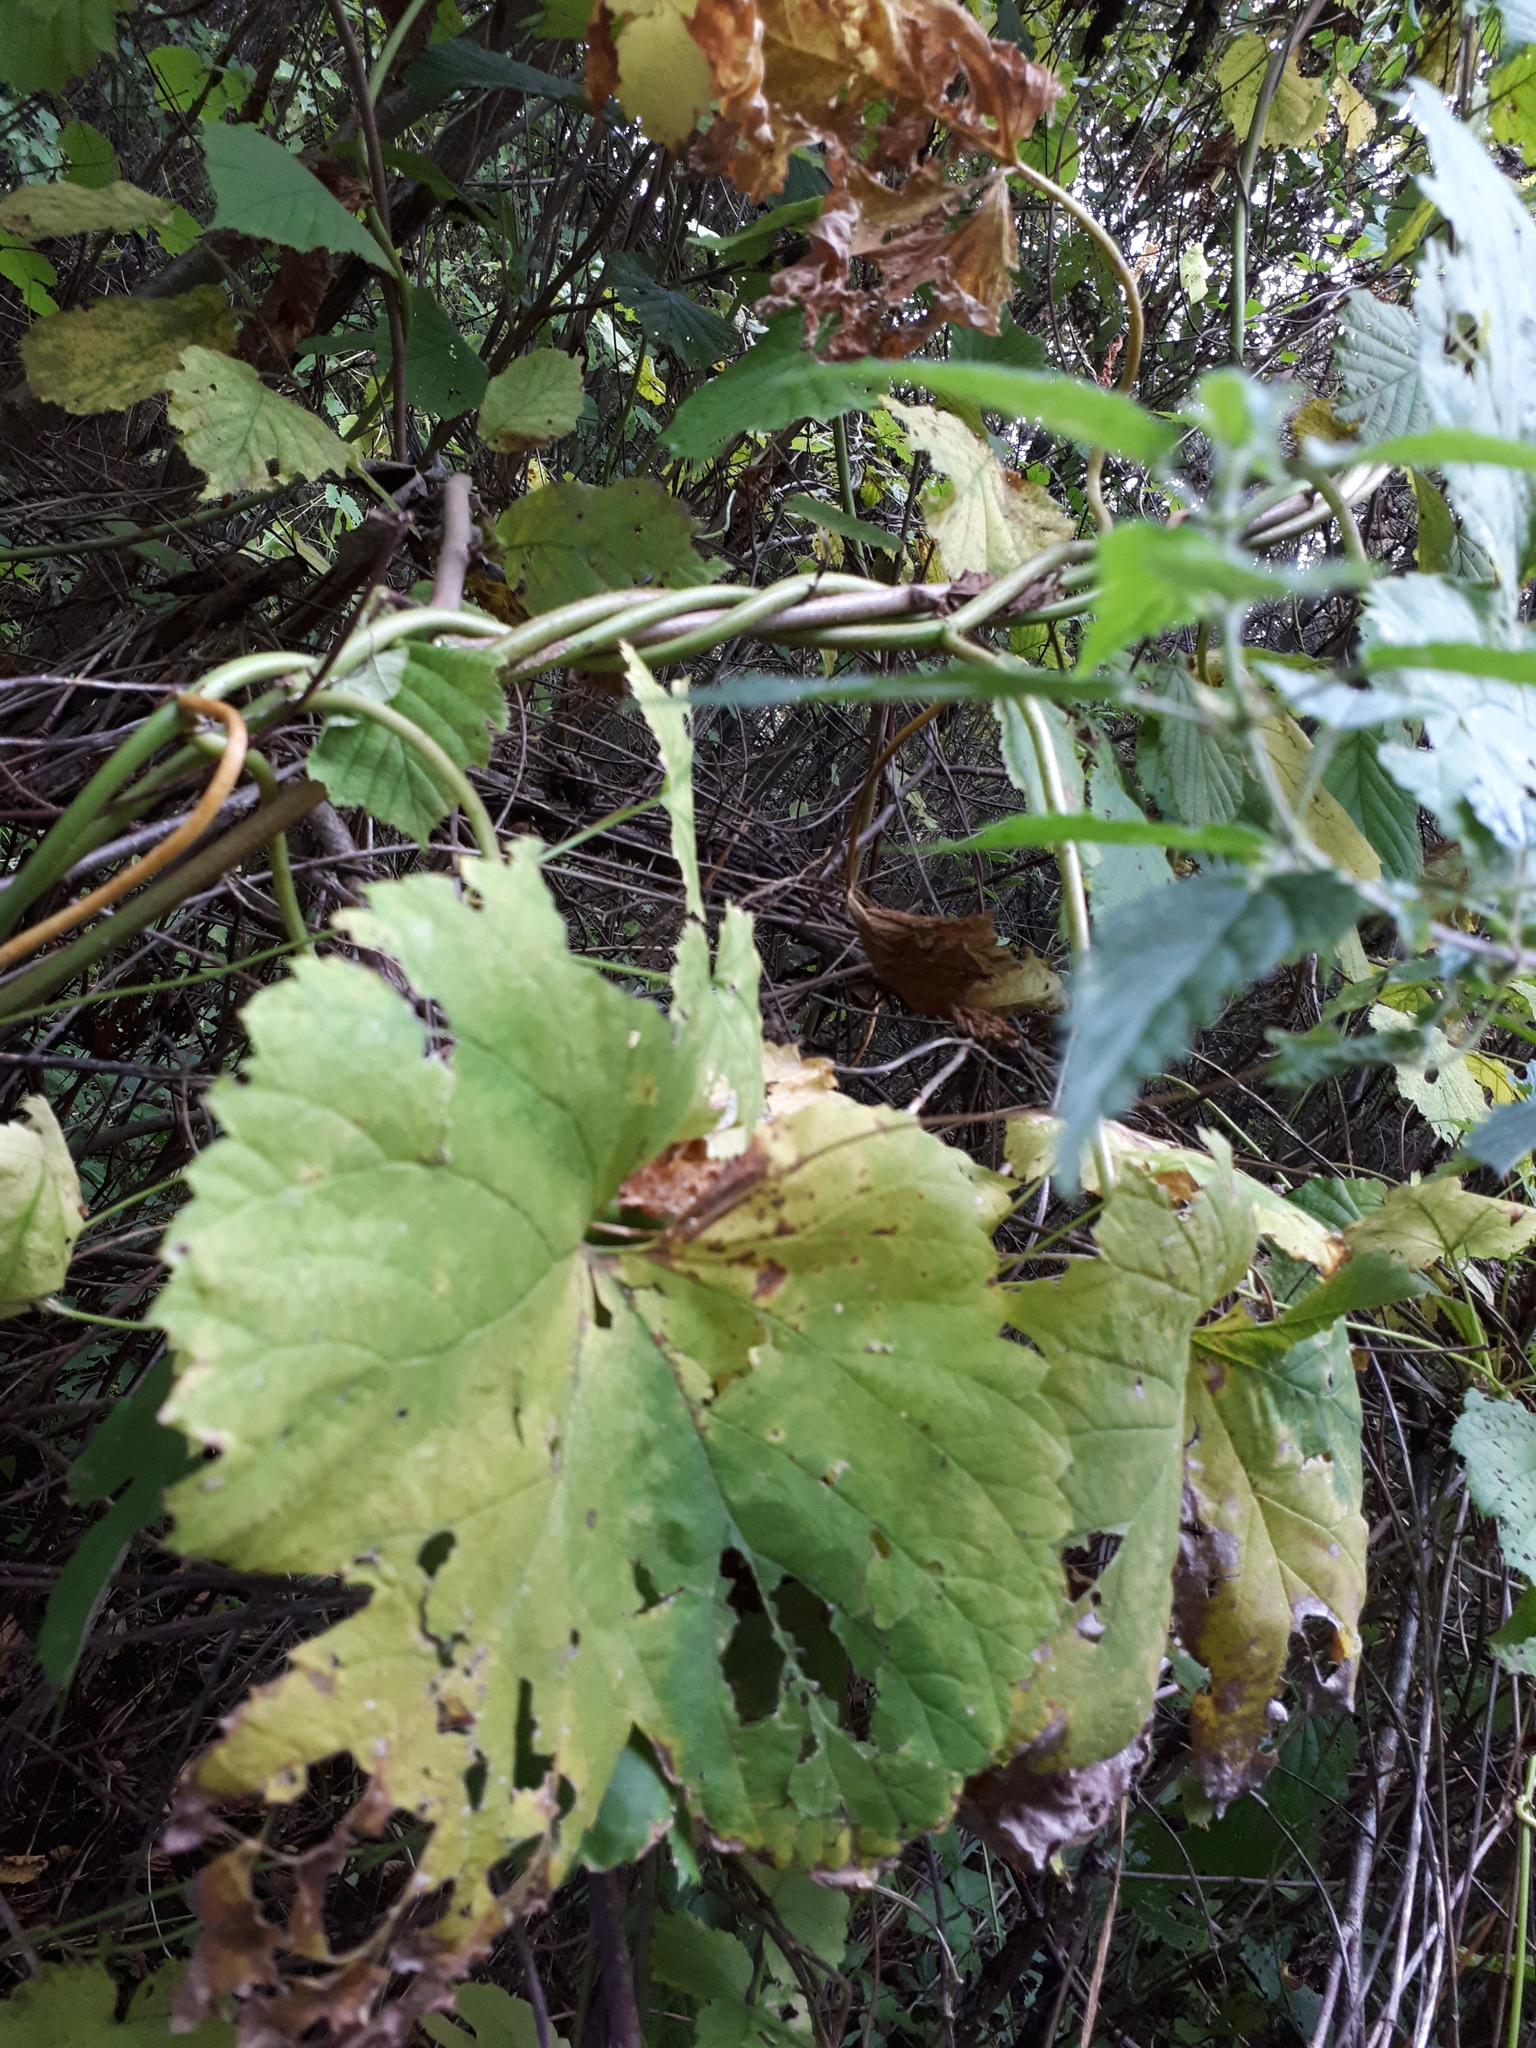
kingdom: Plantae
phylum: Tracheophyta
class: Magnoliopsida
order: Rosales
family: Cannabaceae
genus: Humulus
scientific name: Humulus lupulus
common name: Hop
